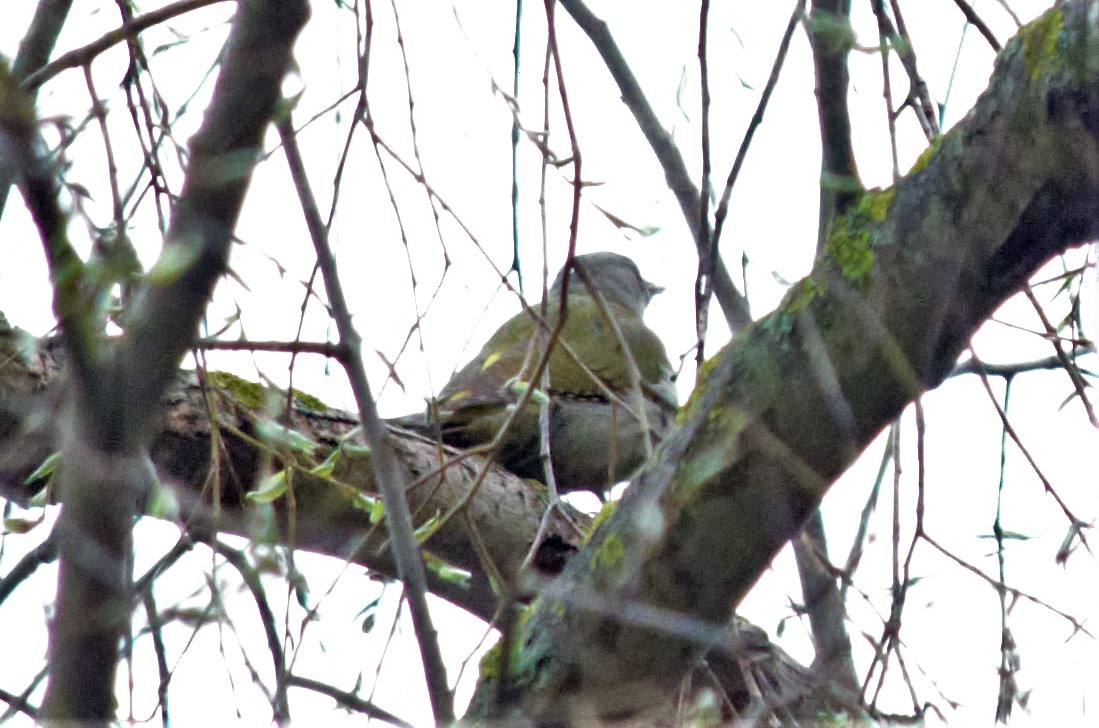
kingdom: Animalia
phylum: Chordata
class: Aves
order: Piciformes
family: Picidae
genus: Picus
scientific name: Picus canus
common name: Grey-headed woodpecker
